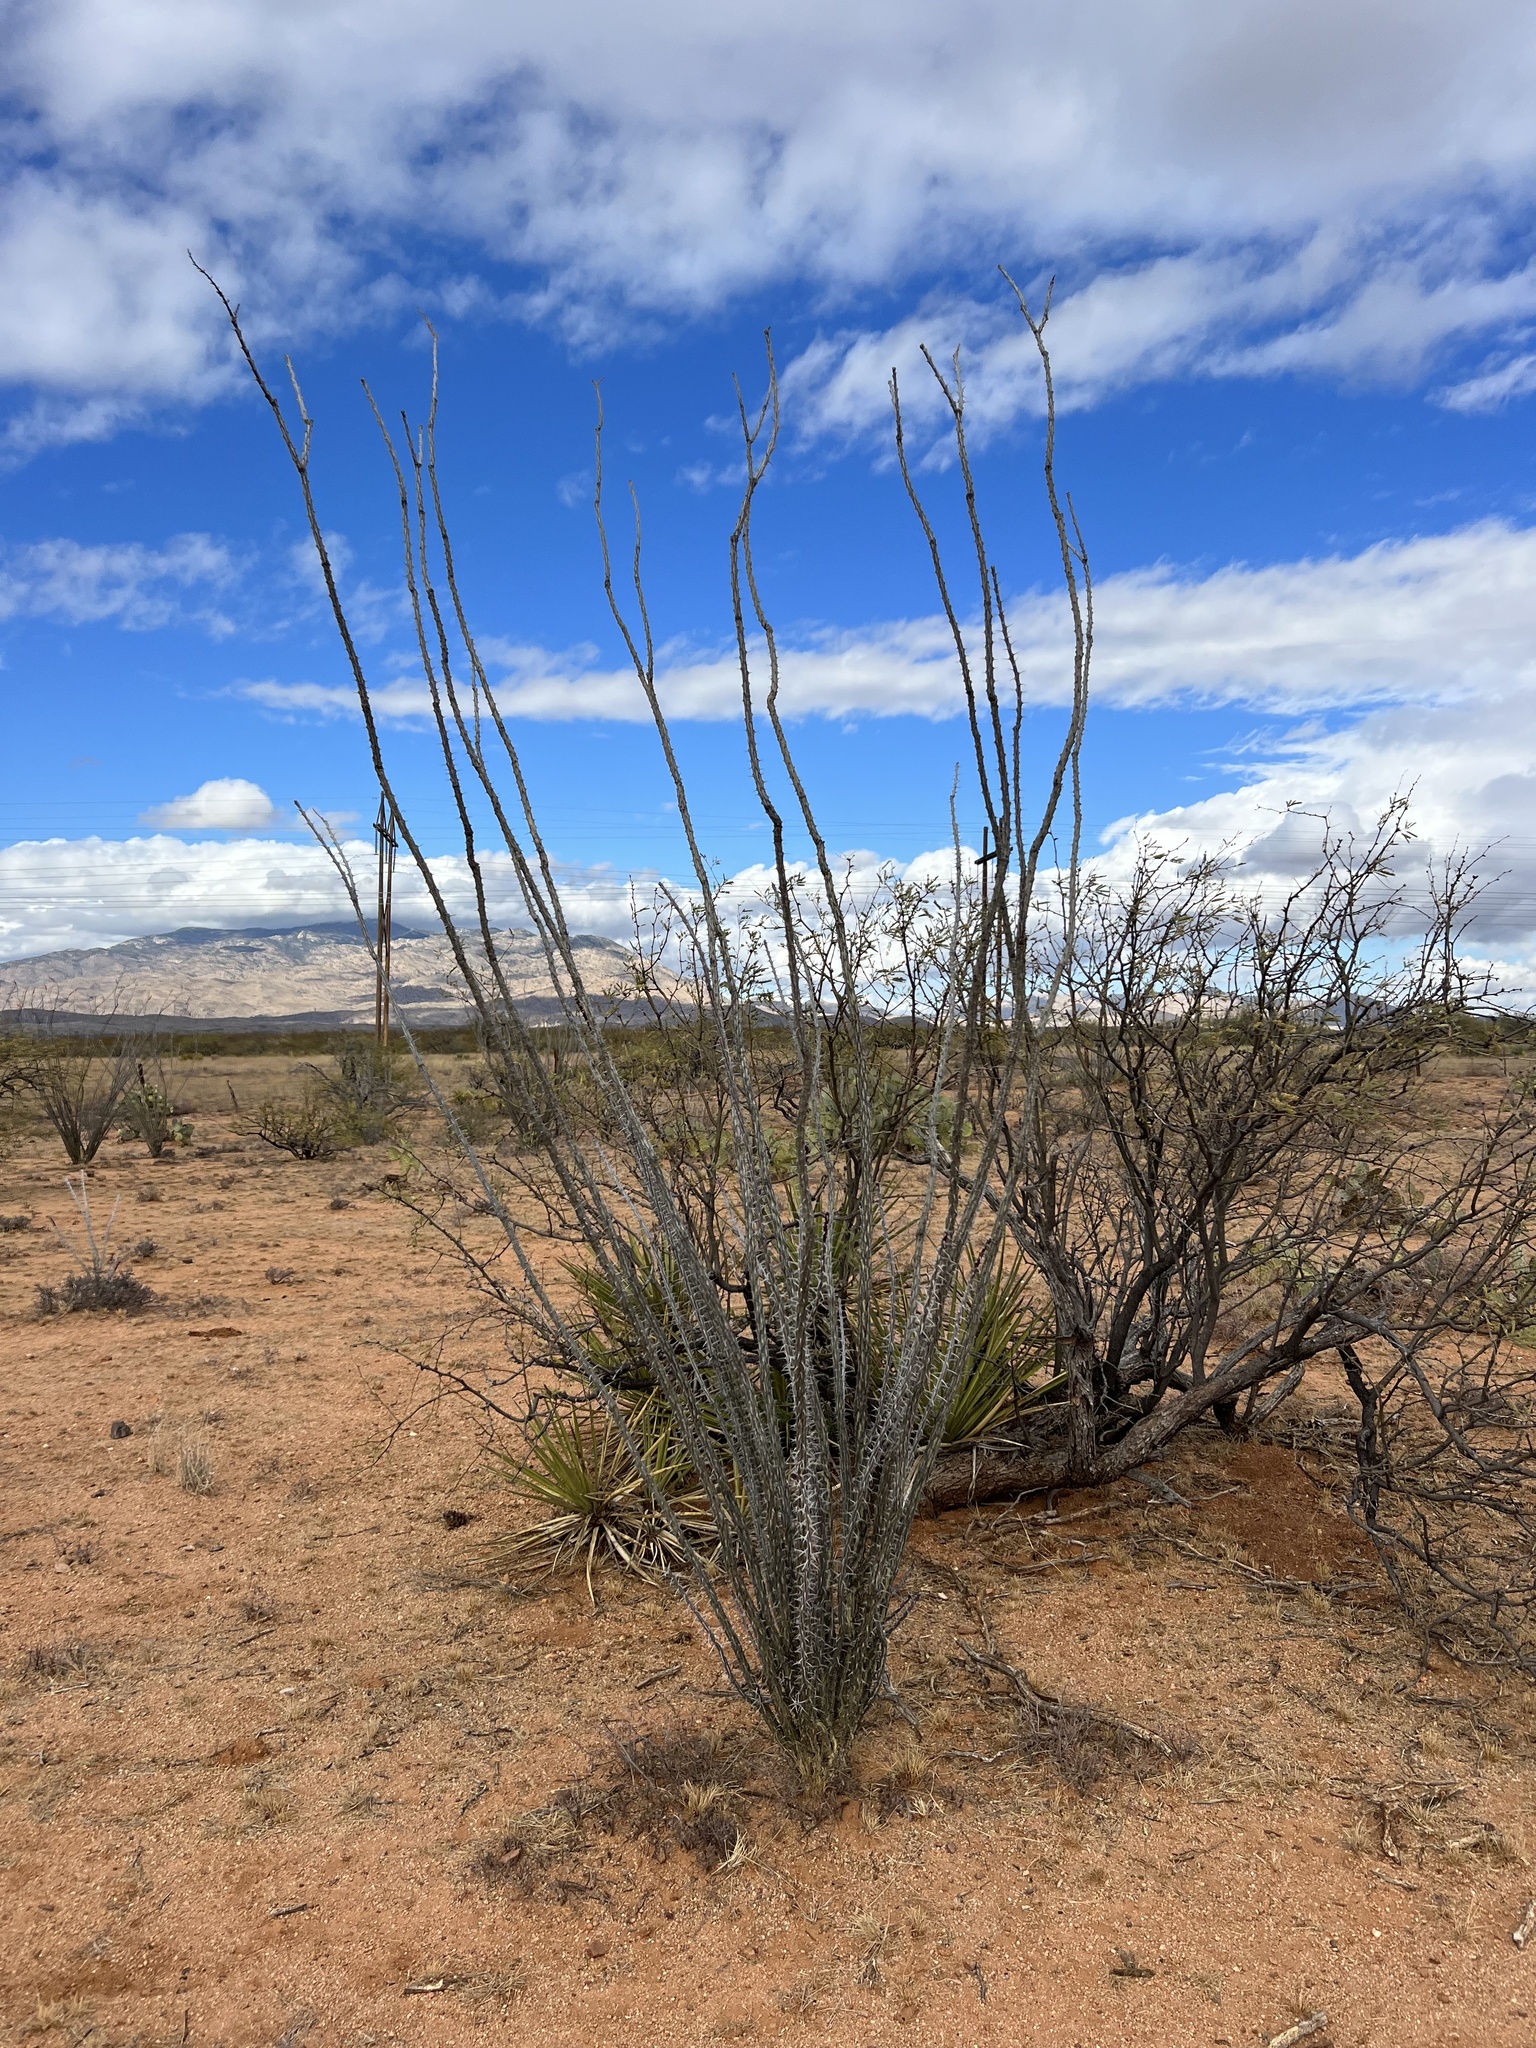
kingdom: Plantae
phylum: Tracheophyta
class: Magnoliopsida
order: Ericales
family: Fouquieriaceae
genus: Fouquieria
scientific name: Fouquieria splendens
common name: Vine-cactus
